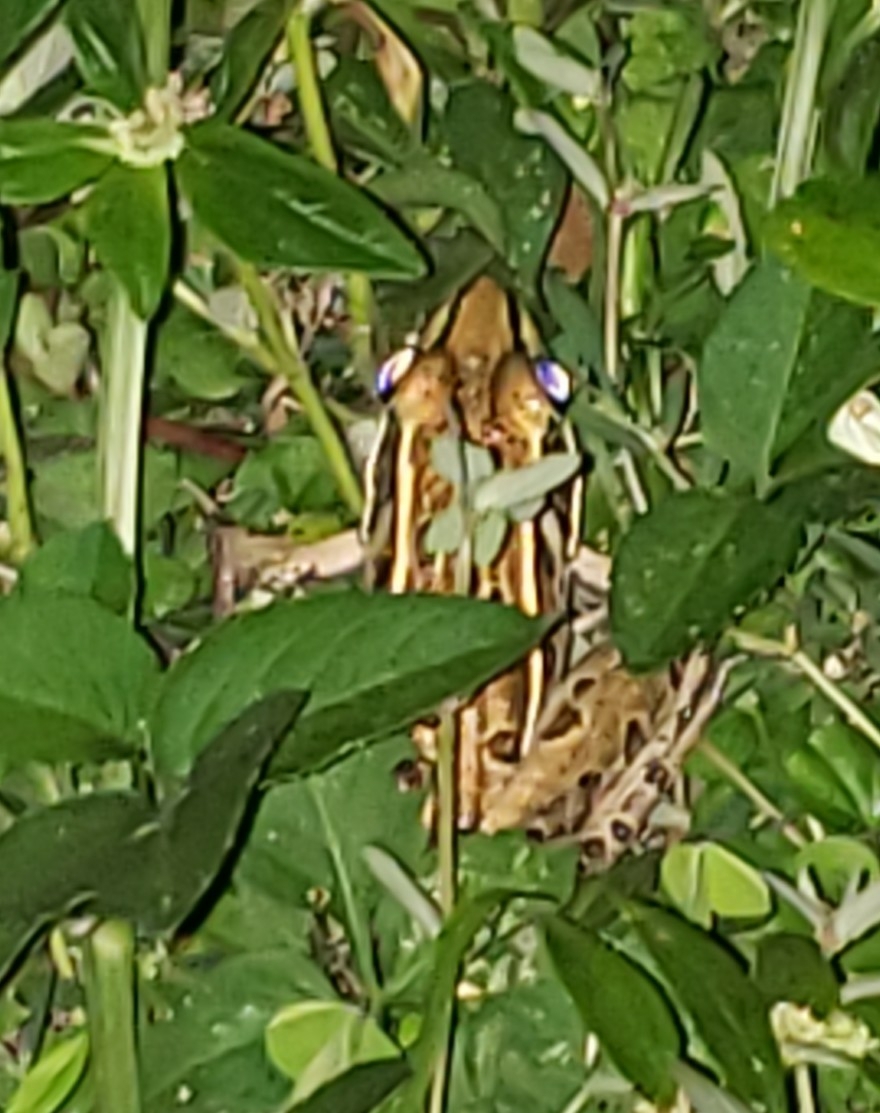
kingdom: Animalia
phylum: Chordata
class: Amphibia
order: Anura
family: Ranidae
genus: Lithobates
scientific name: Lithobates sphenocephalus
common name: Southern leopard frog
